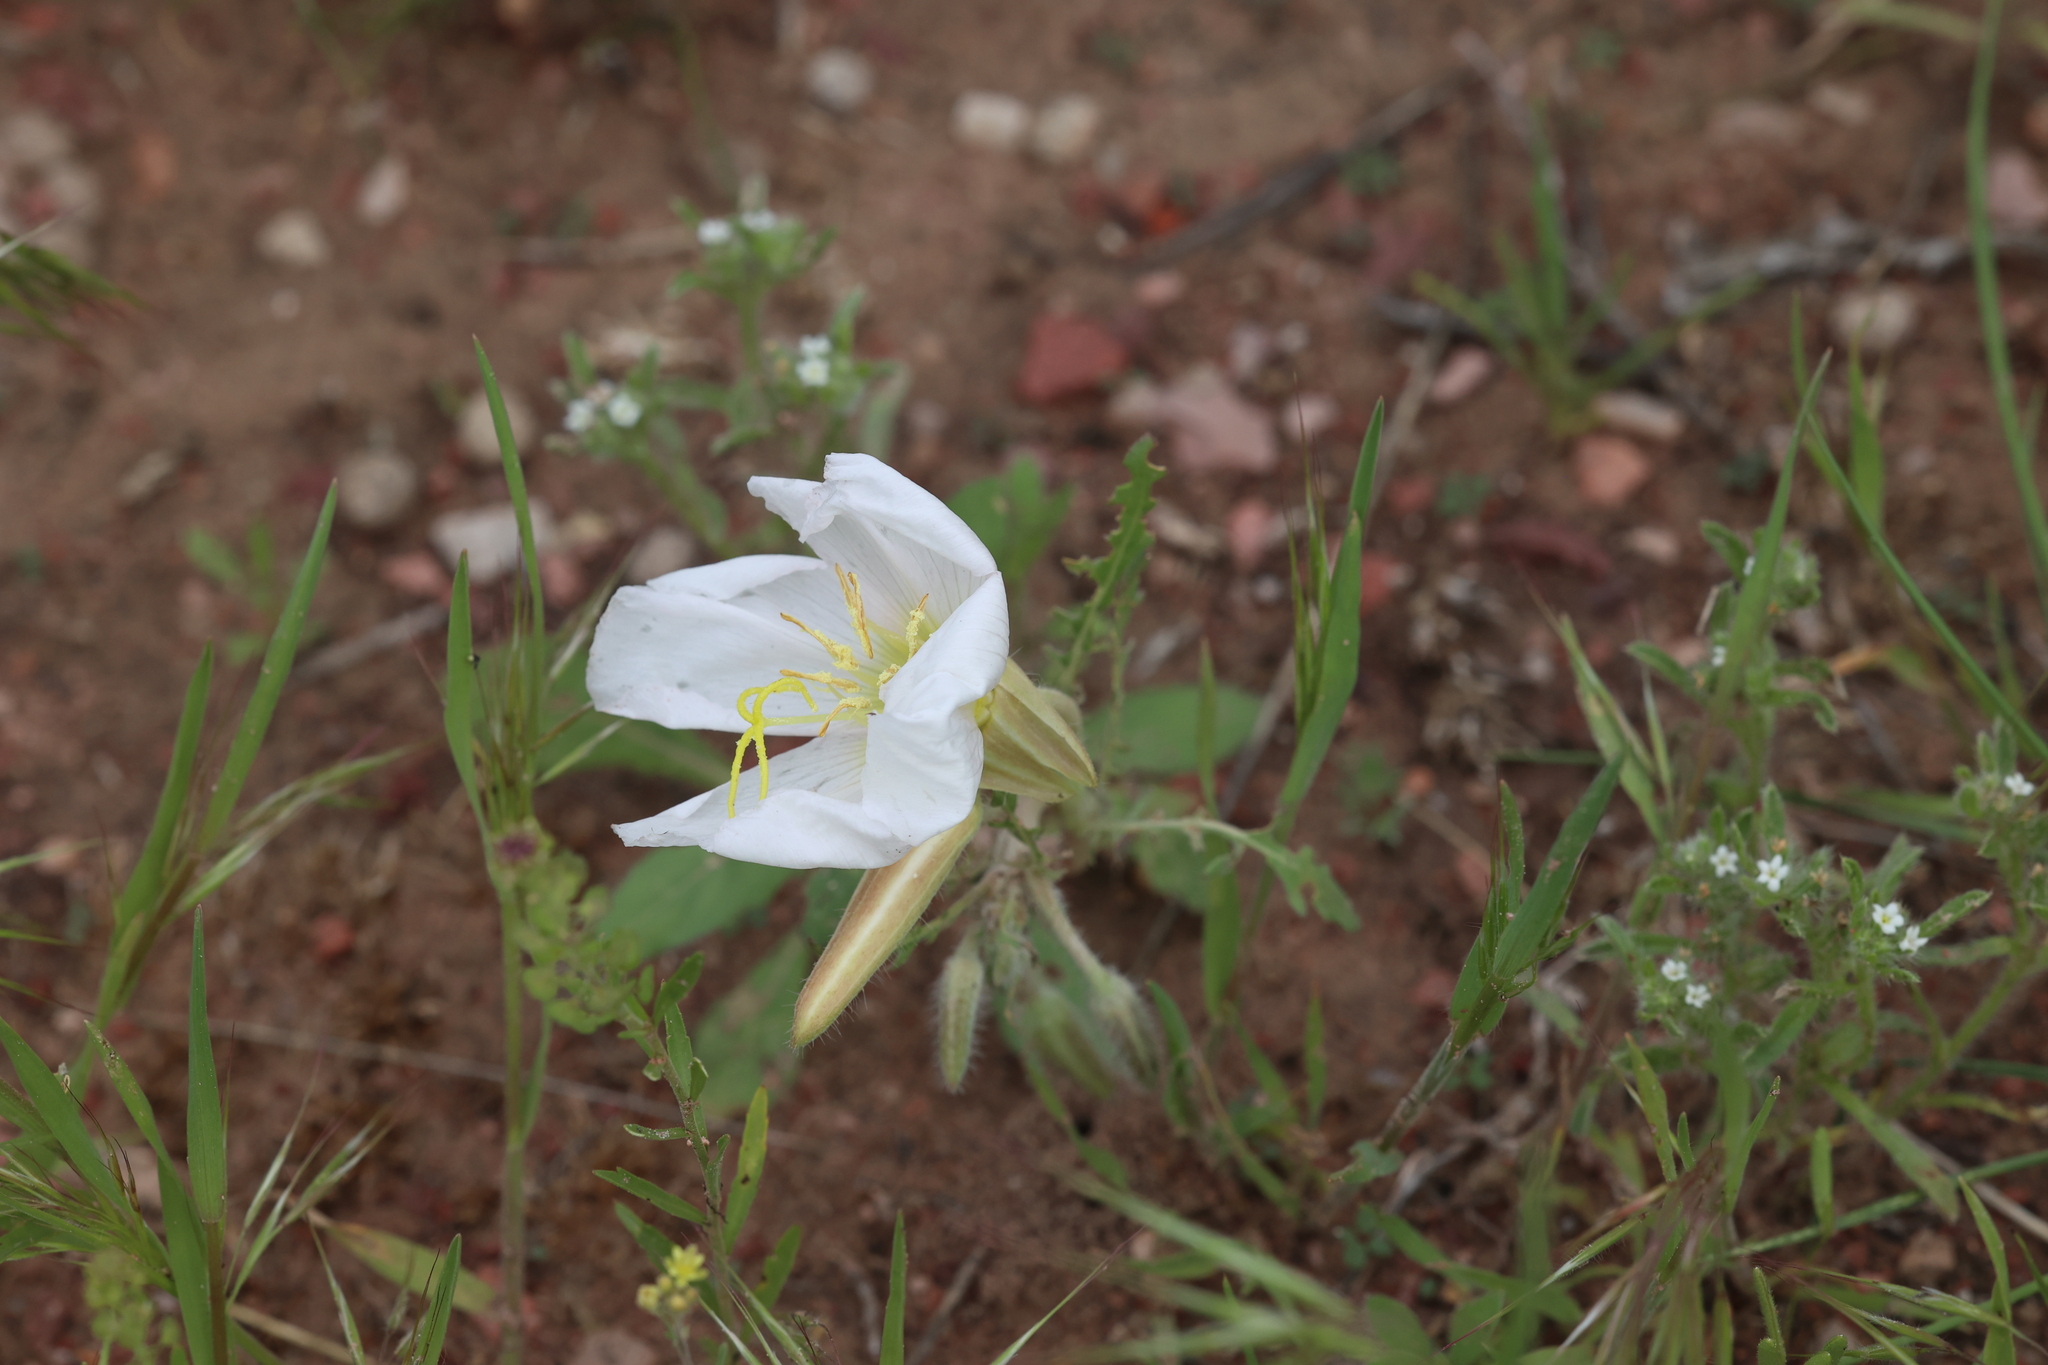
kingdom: Plantae
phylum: Tracheophyta
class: Magnoliopsida
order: Myrtales
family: Onagraceae
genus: Oenothera
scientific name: Oenothera albicaulis
